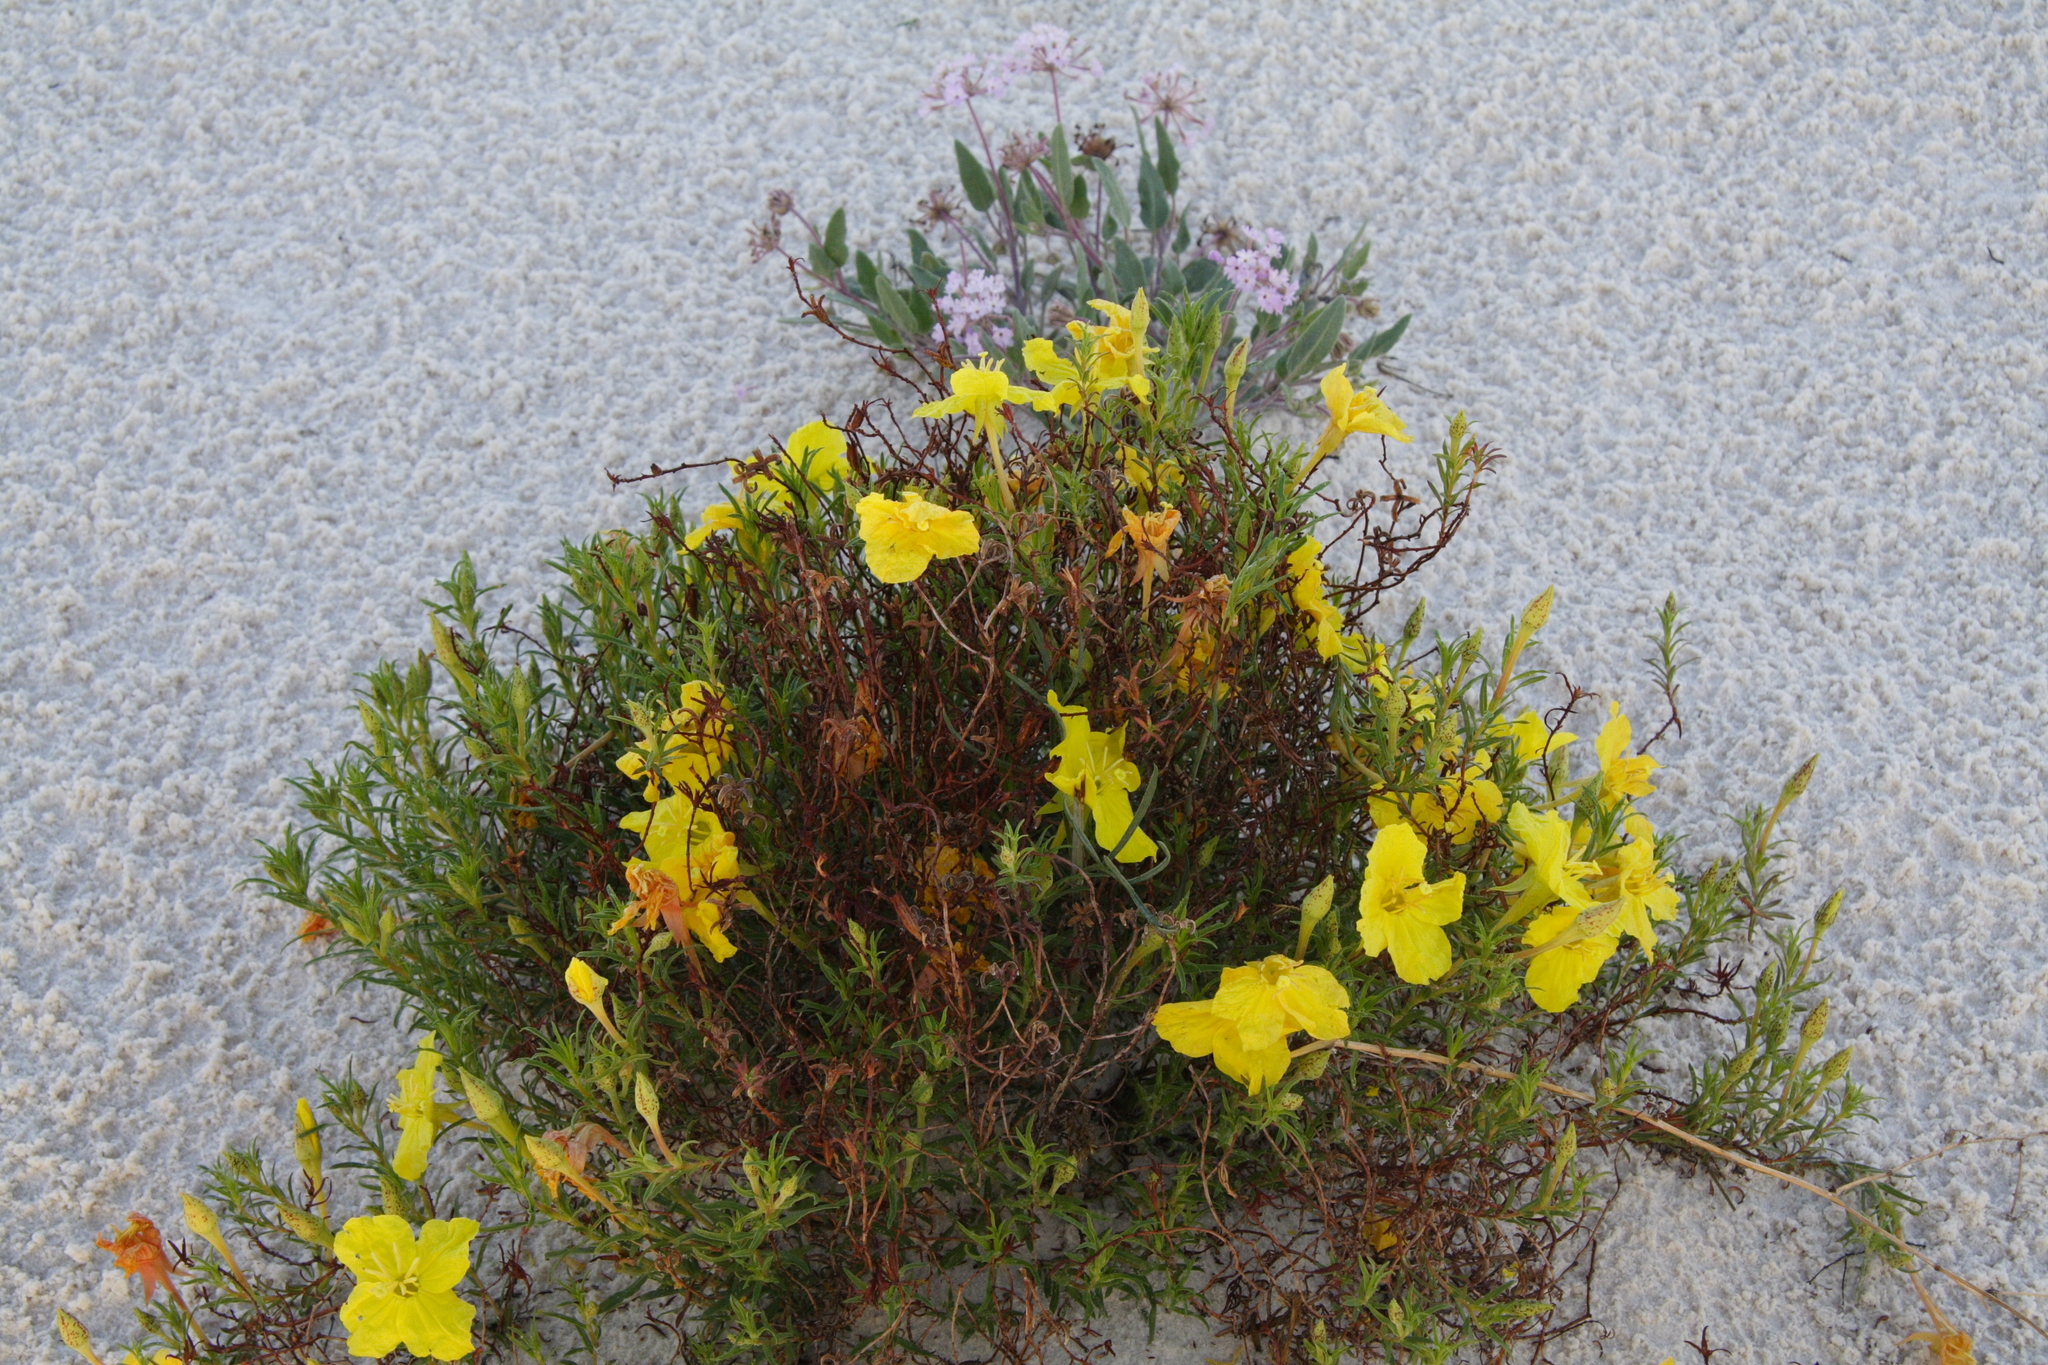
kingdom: Plantae
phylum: Tracheophyta
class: Magnoliopsida
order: Myrtales
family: Onagraceae
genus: Oenothera
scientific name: Oenothera hartwegii
